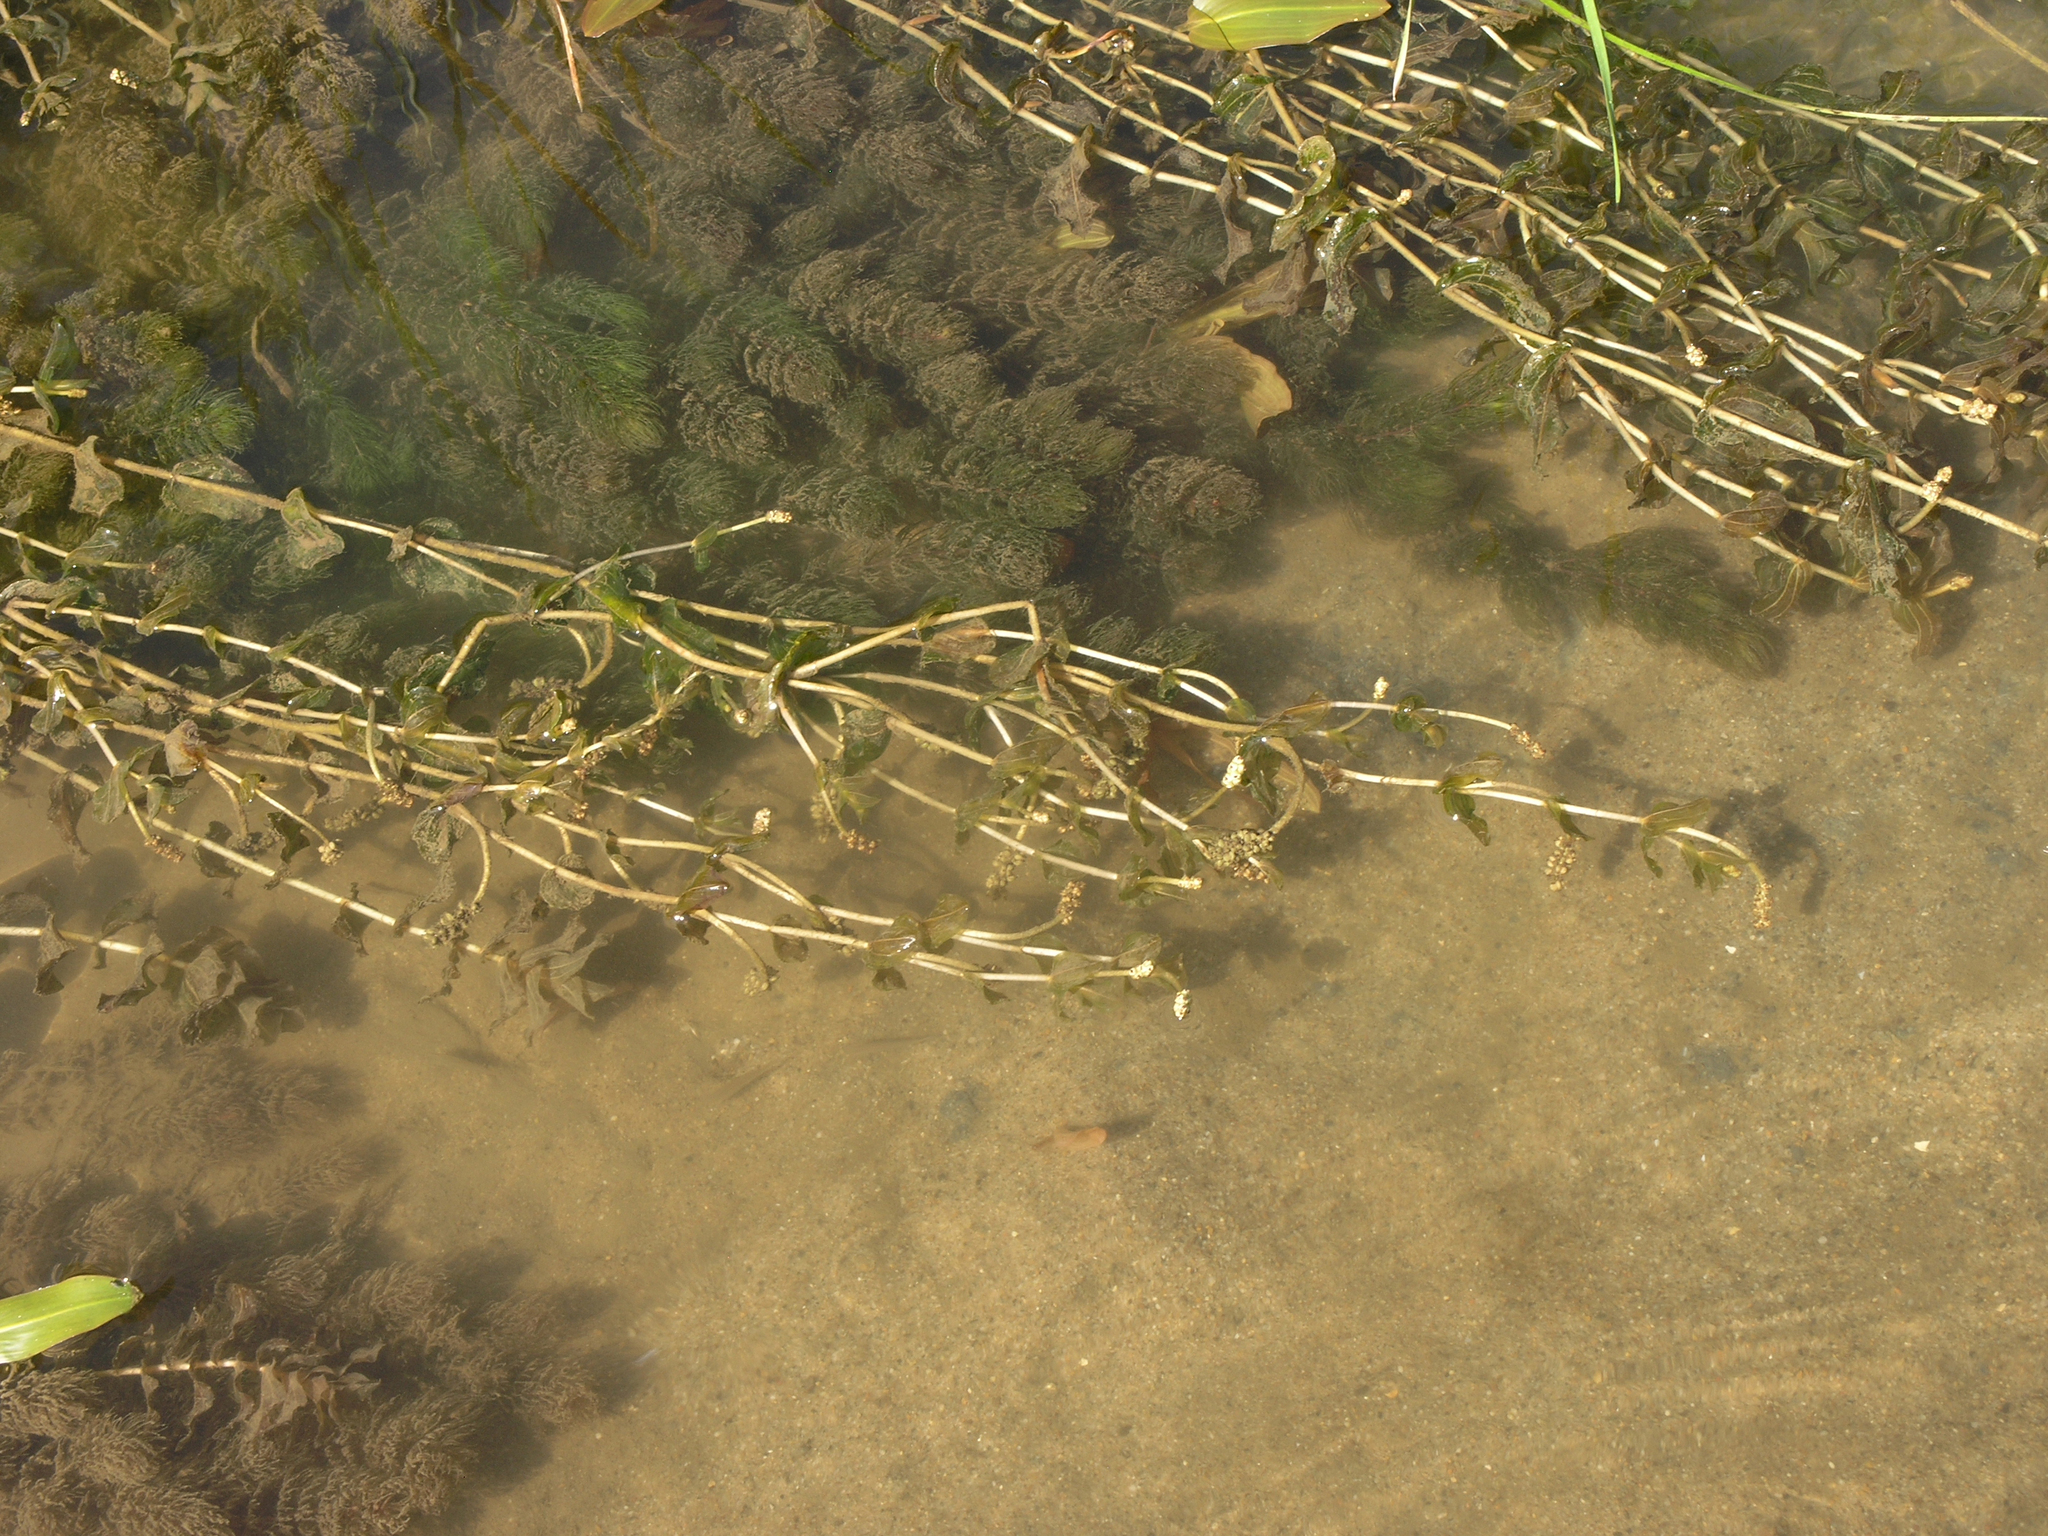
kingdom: Plantae
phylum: Tracheophyta
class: Liliopsida
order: Alismatales
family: Potamogetonaceae
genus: Potamogeton
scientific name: Potamogeton perfoliatus
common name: Perfoliate pondweed
